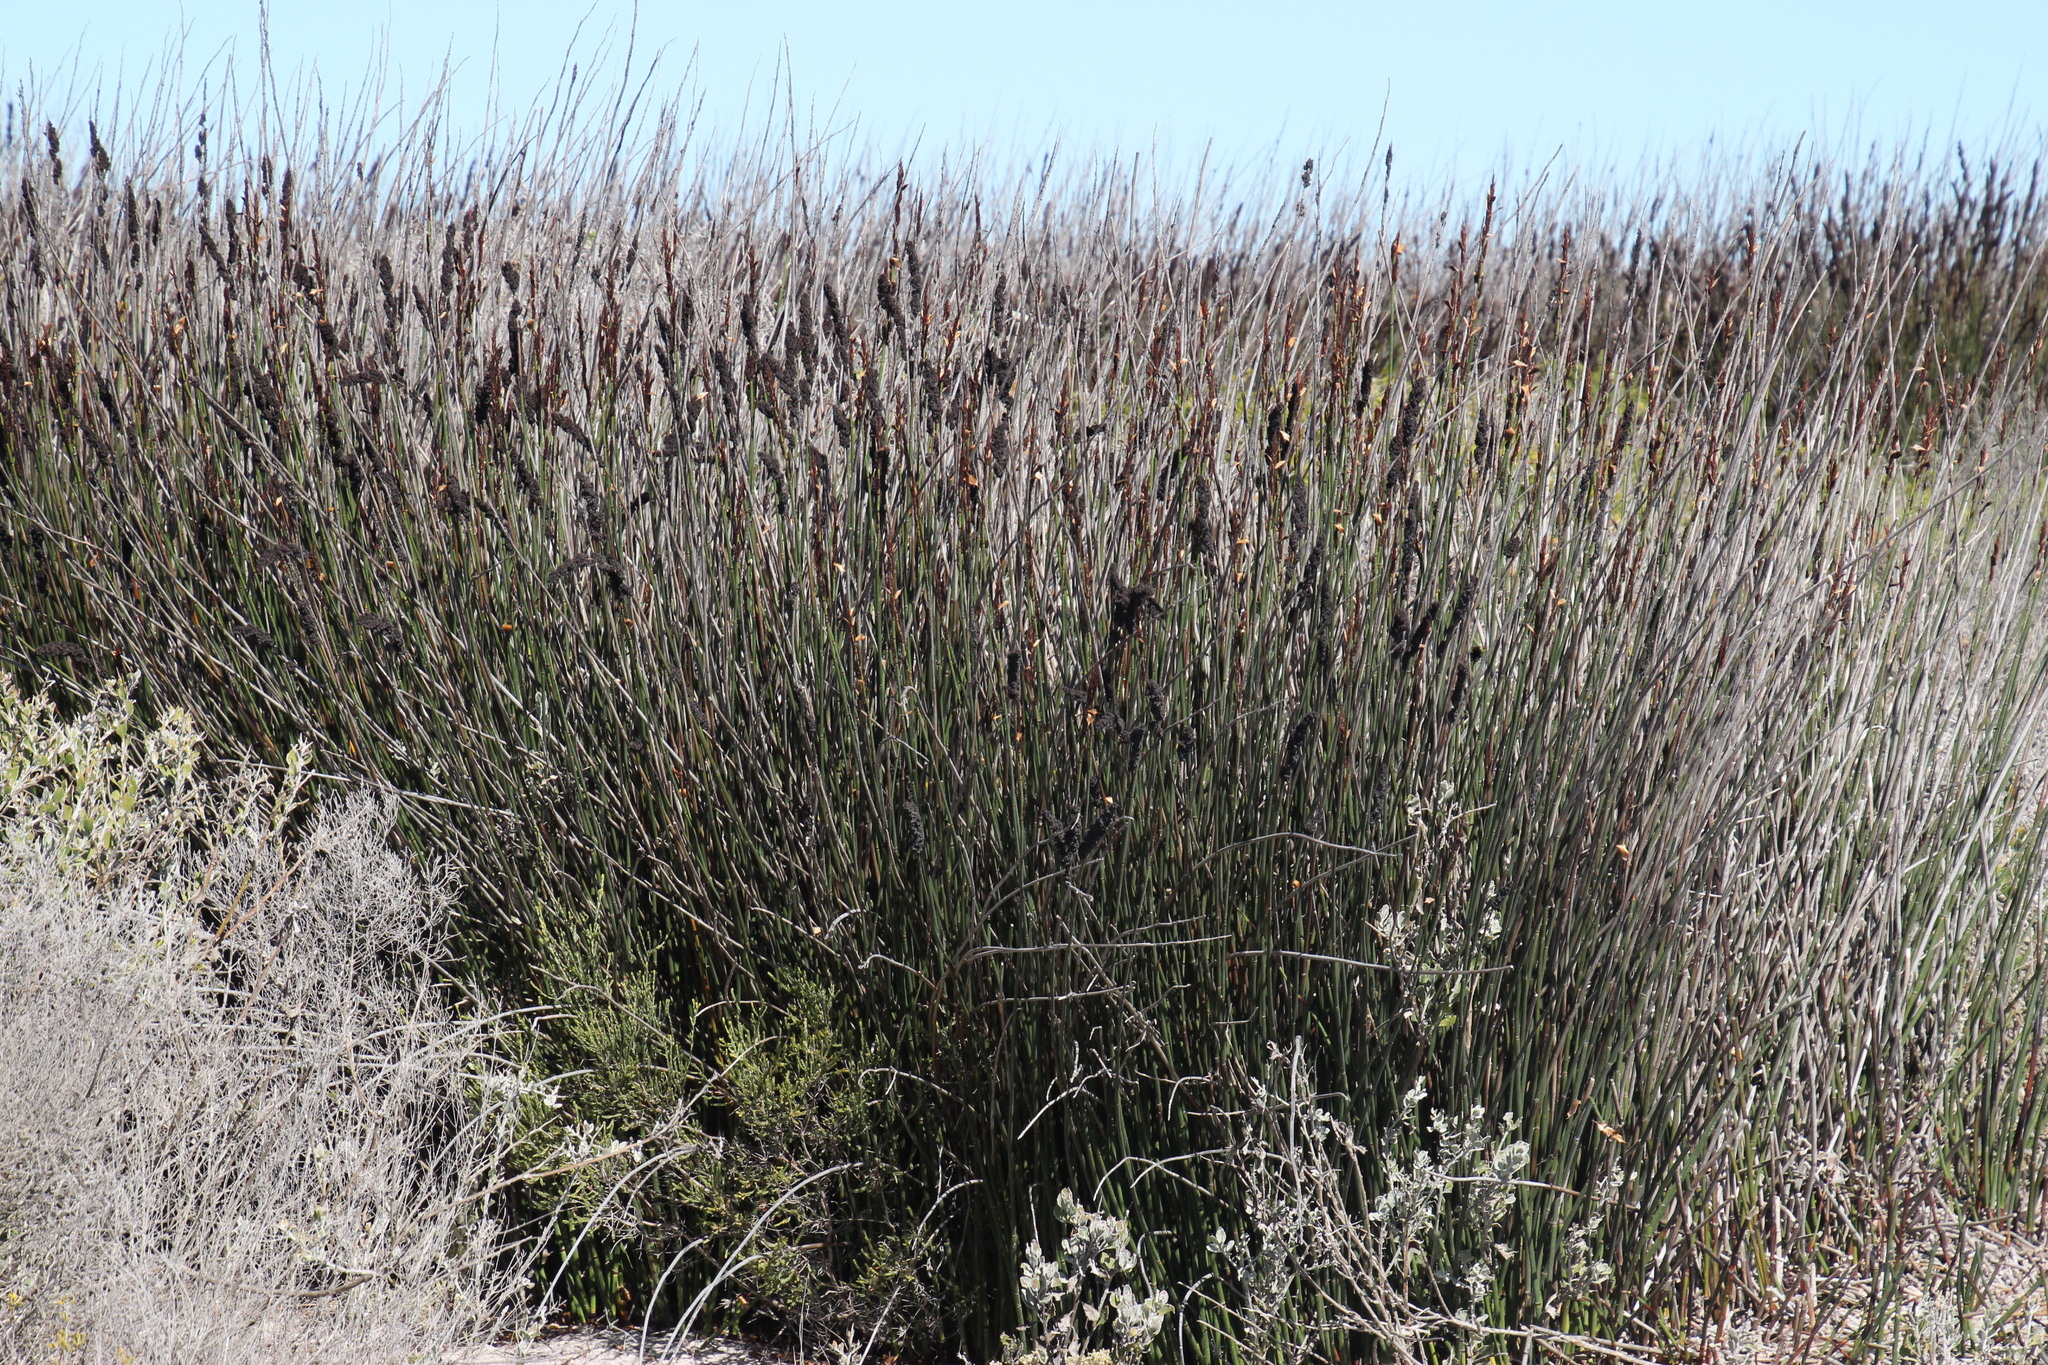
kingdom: Plantae
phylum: Tracheophyta
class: Liliopsida
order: Poales
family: Restionaceae
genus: Elegia
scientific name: Elegia tectorum
